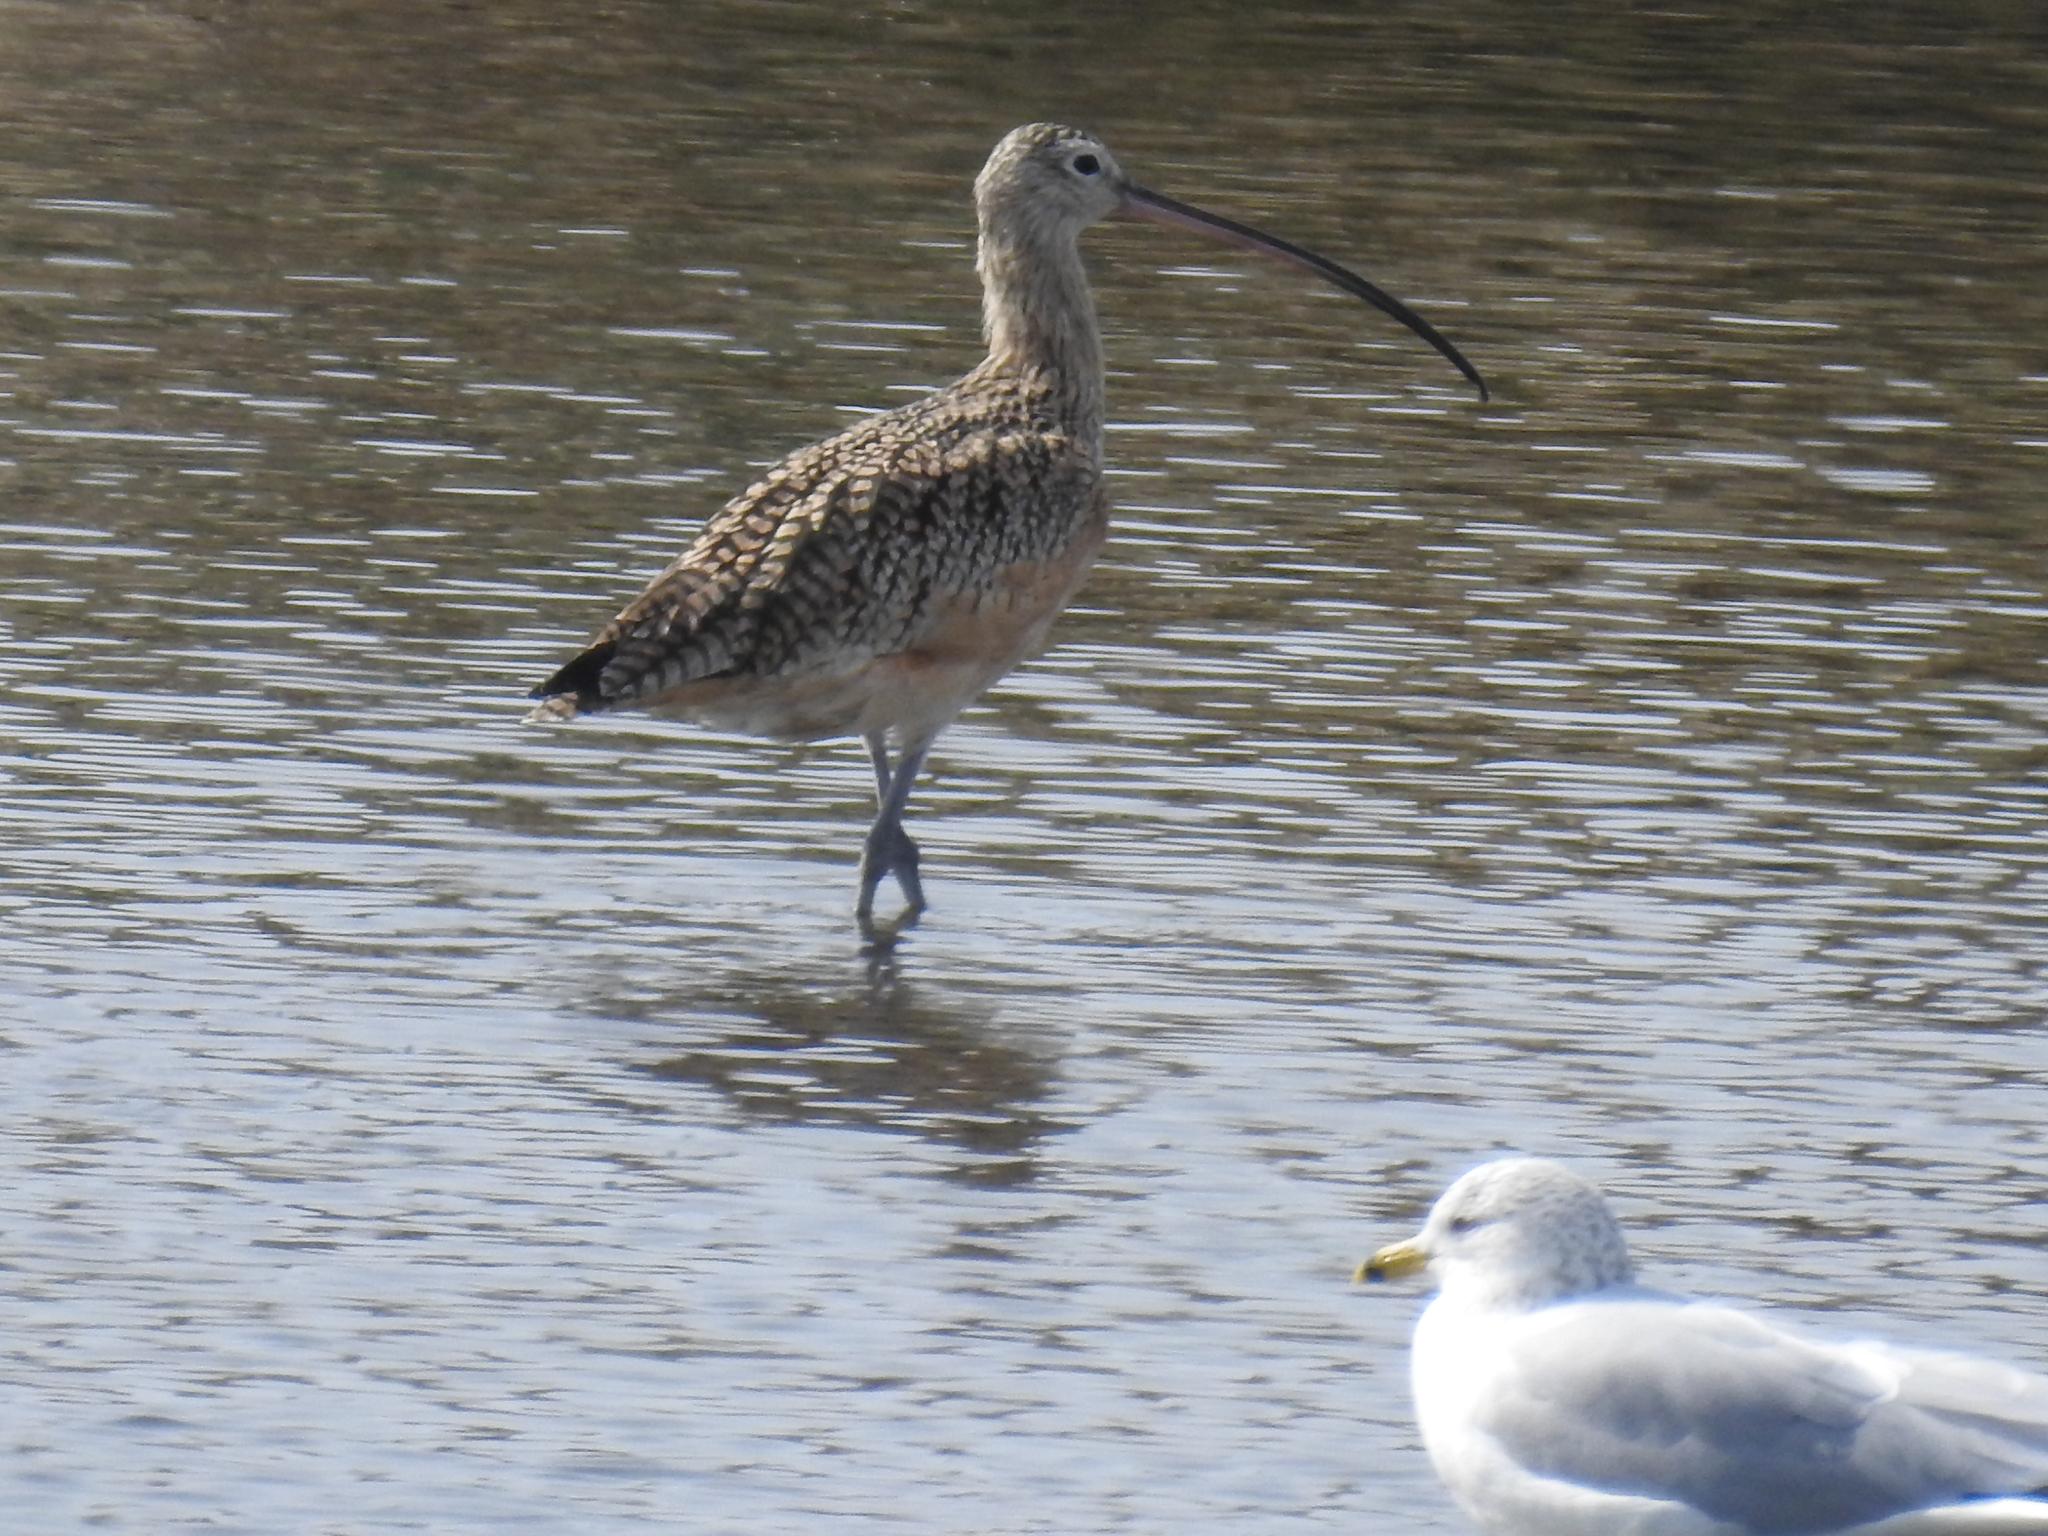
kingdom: Animalia
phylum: Chordata
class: Aves
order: Charadriiformes
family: Scolopacidae
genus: Numenius
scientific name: Numenius americanus
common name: Long-billed curlew
